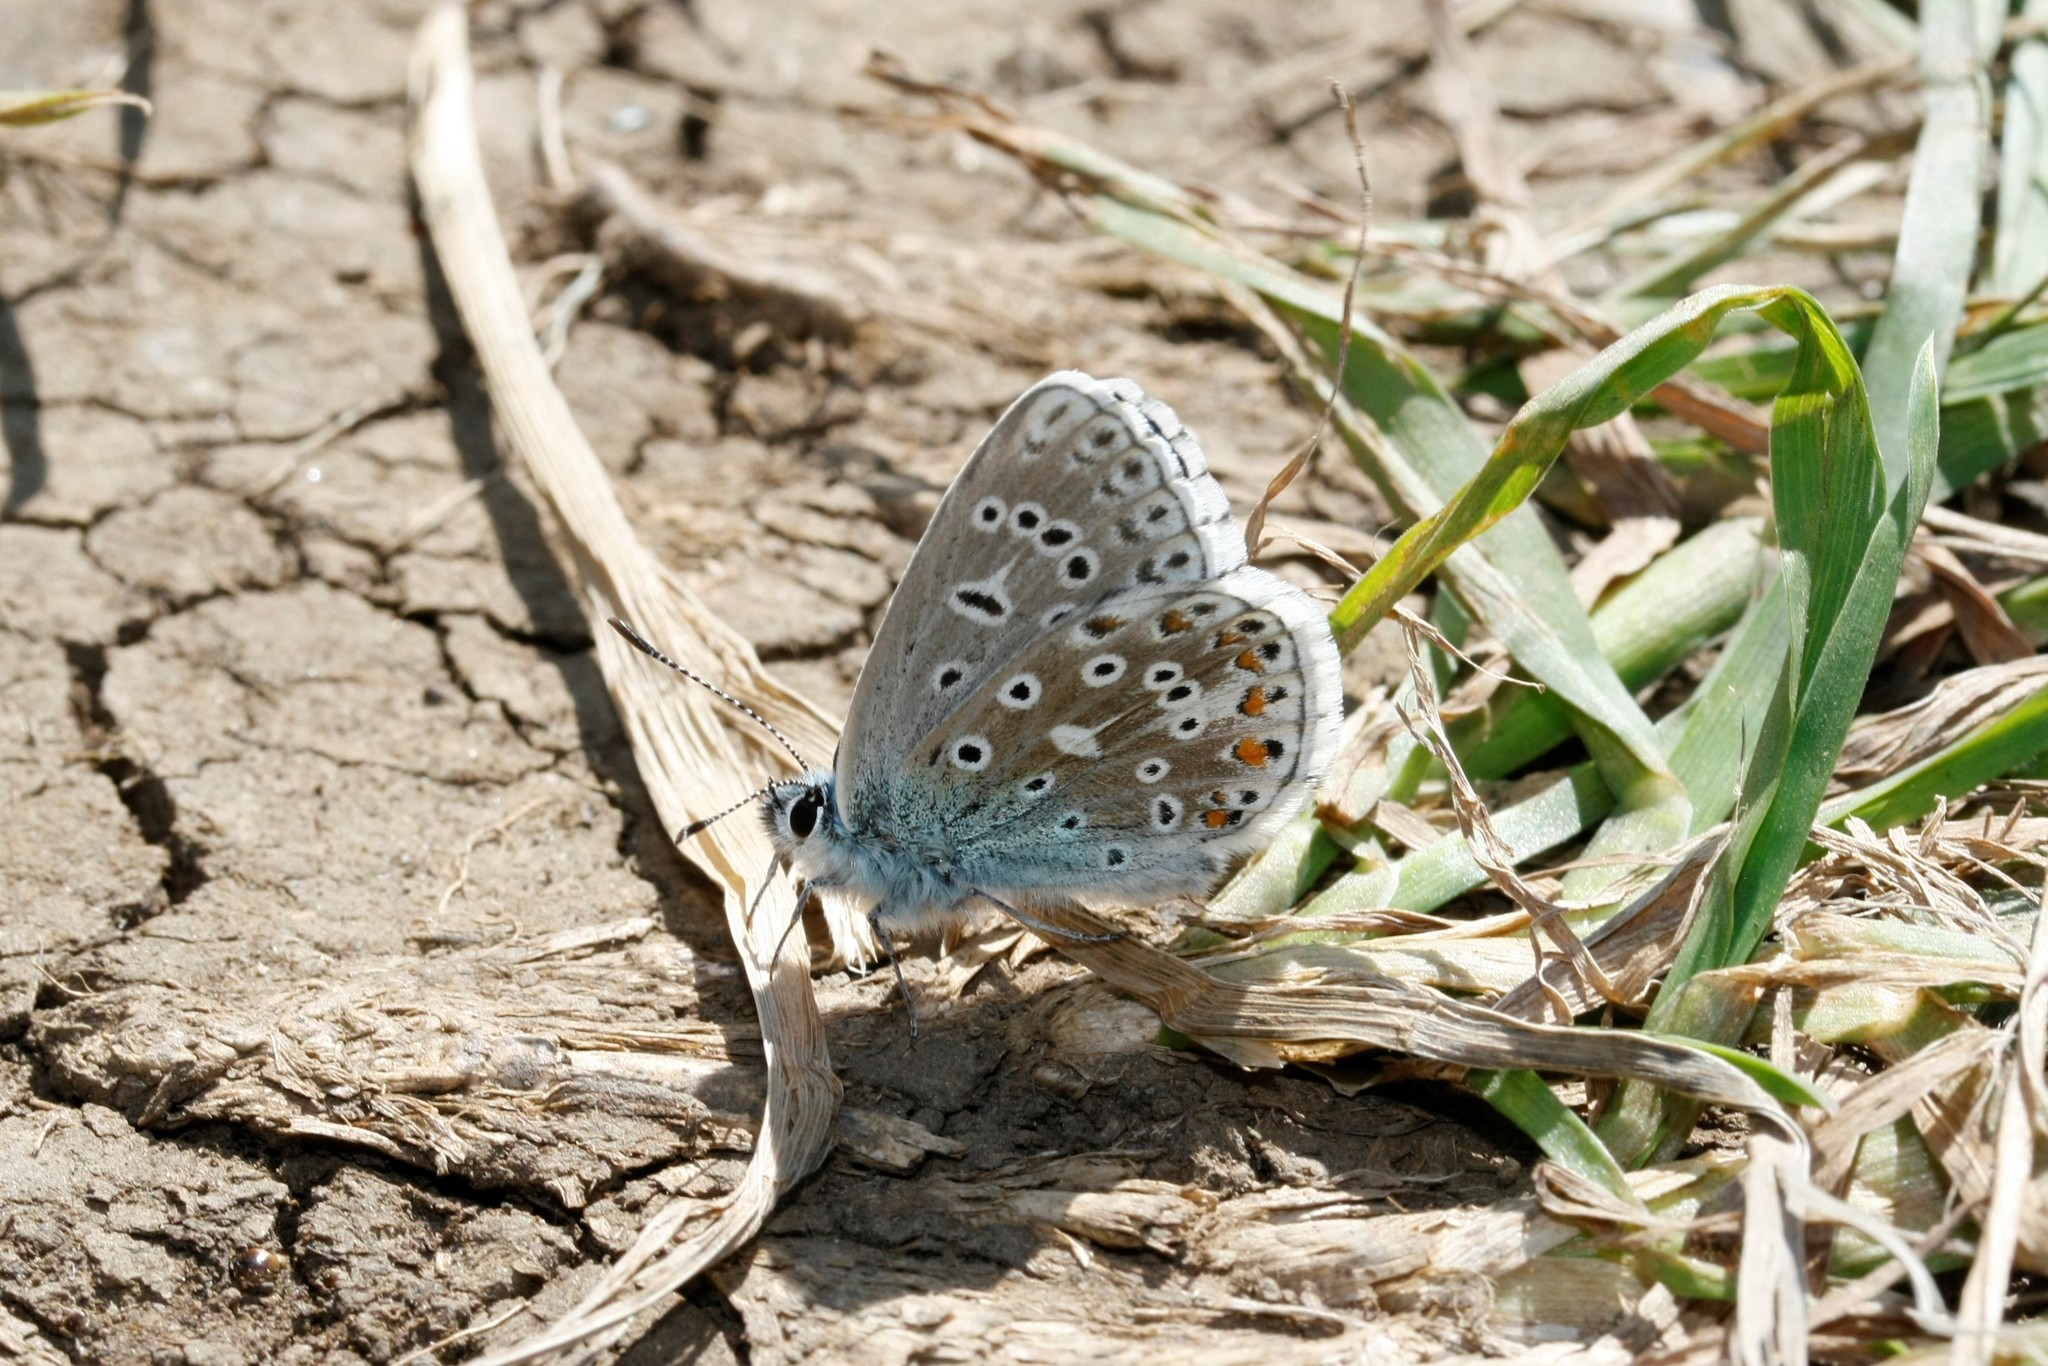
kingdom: Animalia
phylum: Arthropoda
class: Insecta
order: Lepidoptera
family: Lycaenidae
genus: Lysandra
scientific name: Lysandra bellargus
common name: Adonis blue
